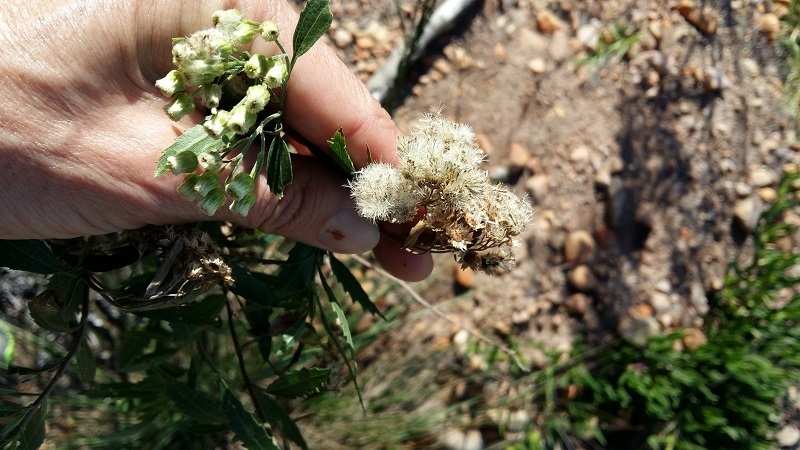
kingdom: Plantae
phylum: Tracheophyta
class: Magnoliopsida
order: Asterales
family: Asteraceae
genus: Nidorella
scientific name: Nidorella ivifolia
